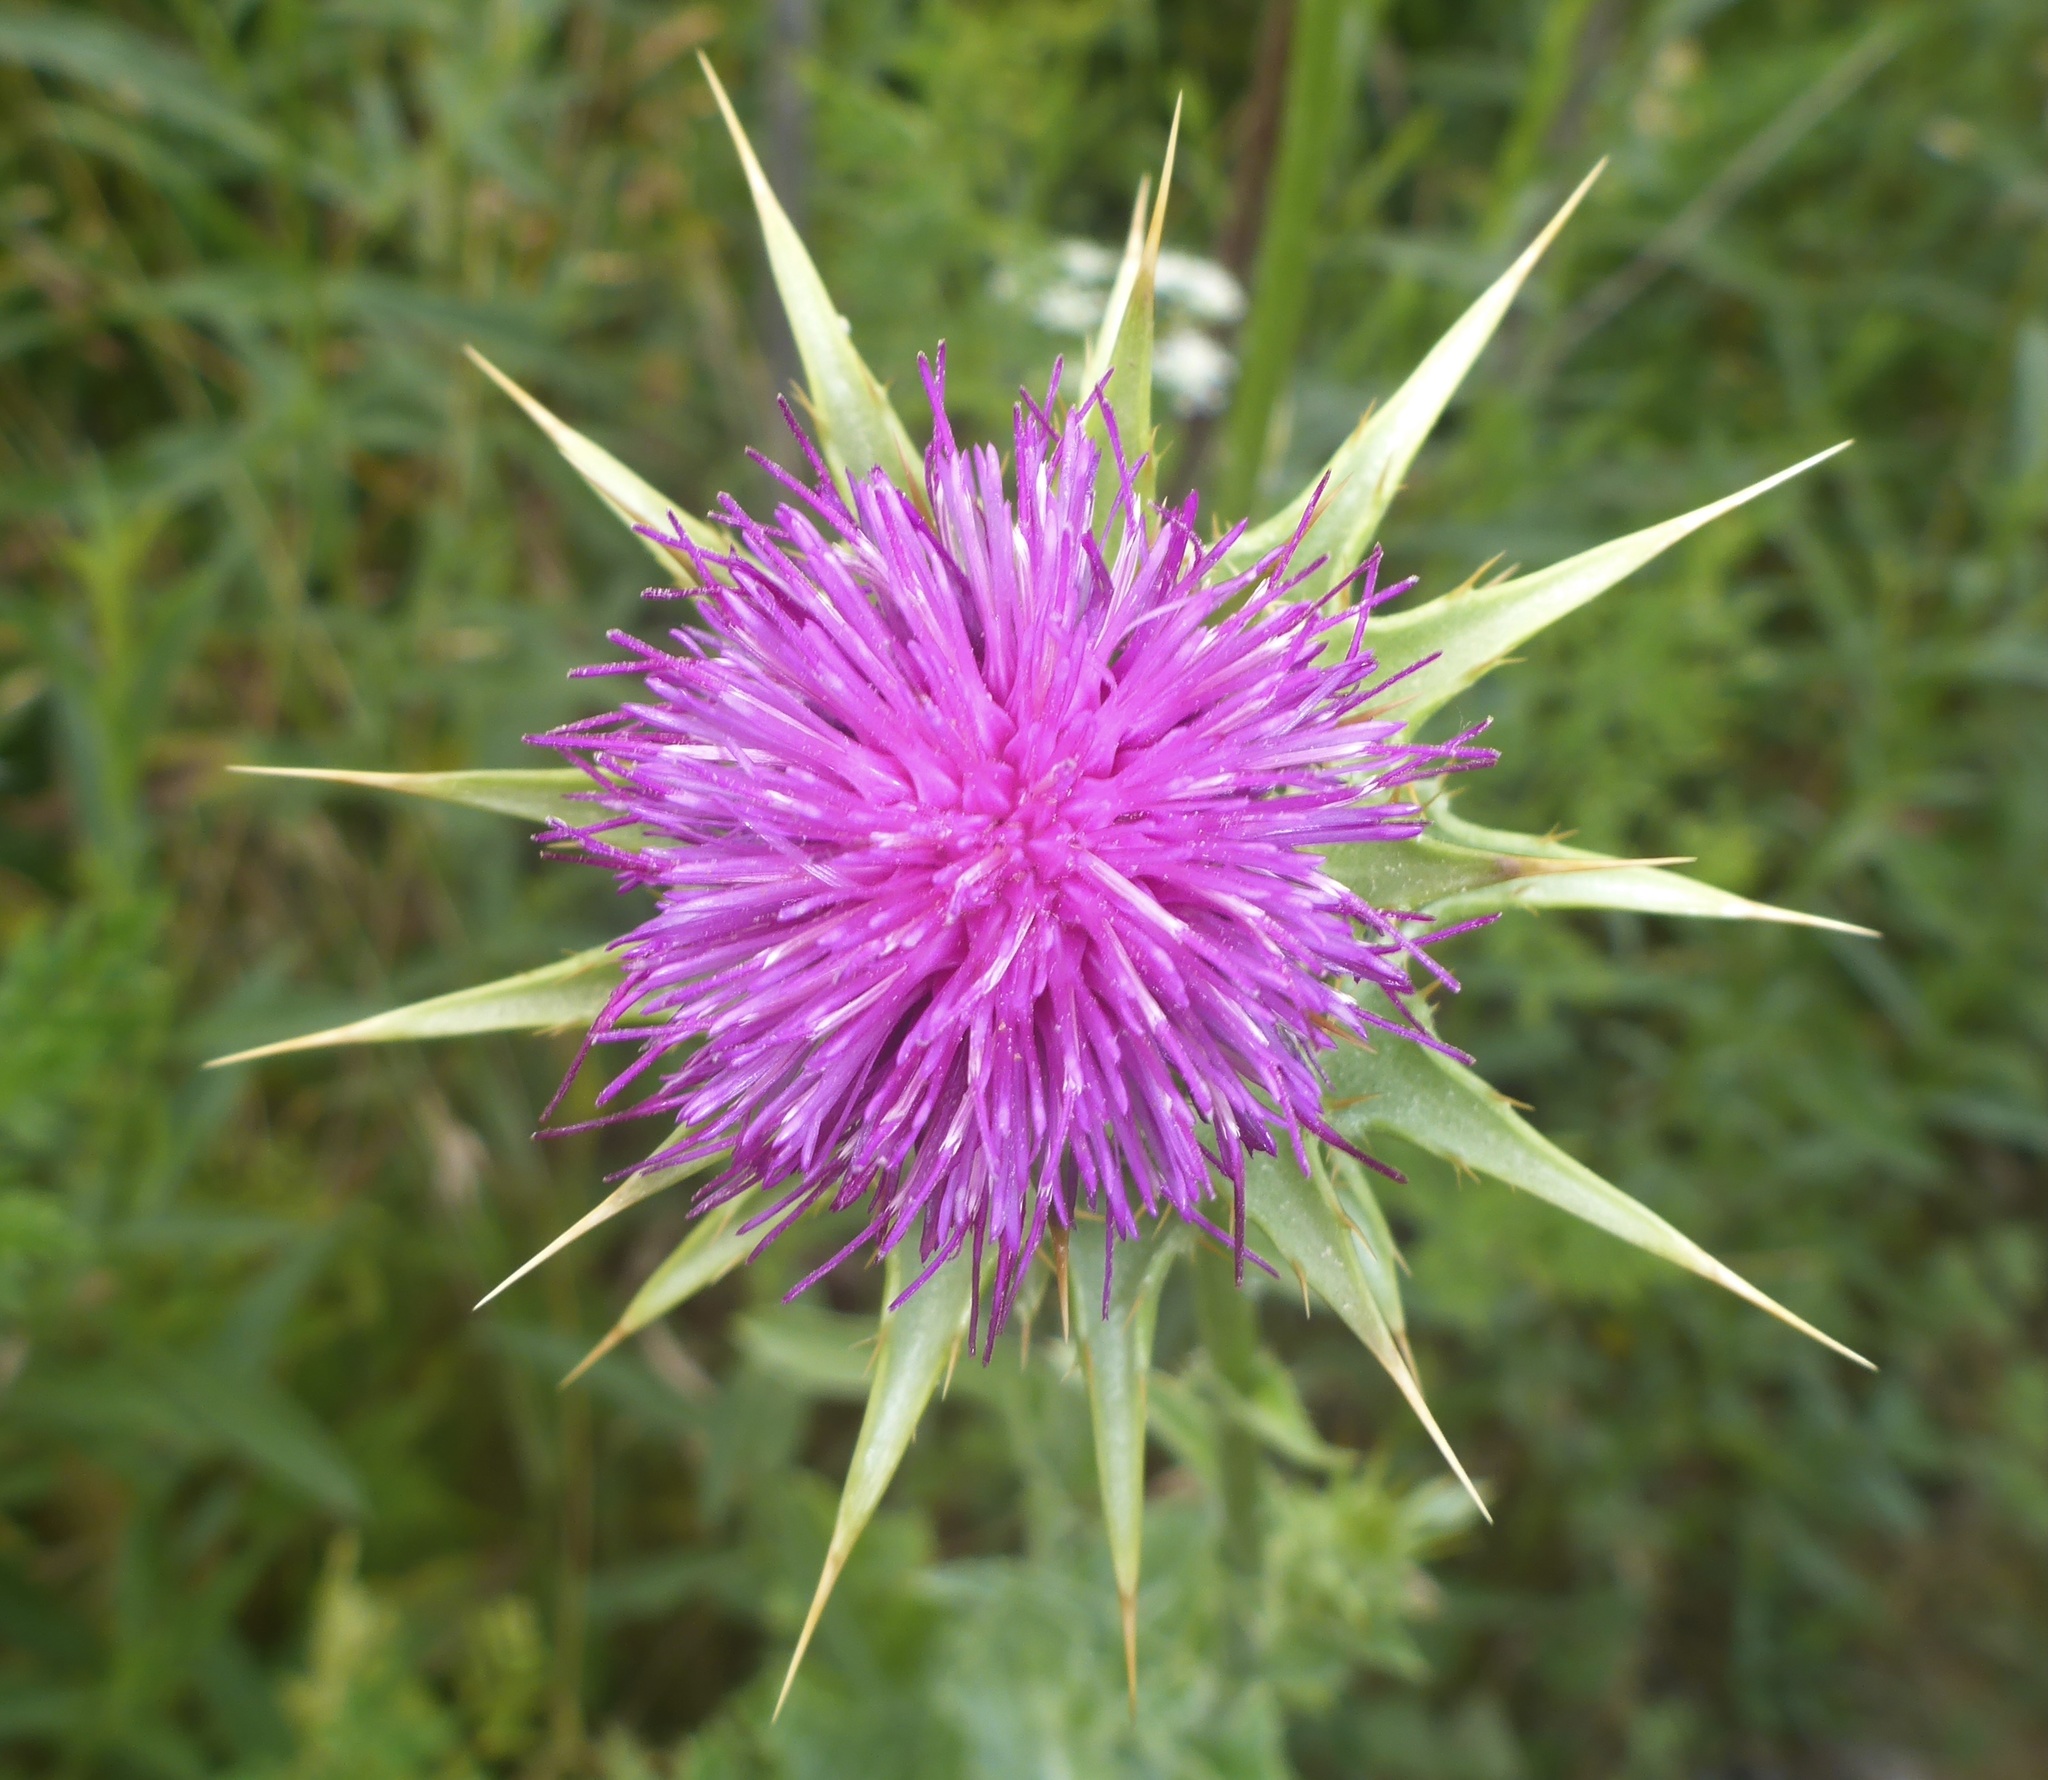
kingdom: Plantae
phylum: Tracheophyta
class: Magnoliopsida
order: Asterales
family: Asteraceae
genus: Silybum
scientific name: Silybum marianum
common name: Milk thistle
